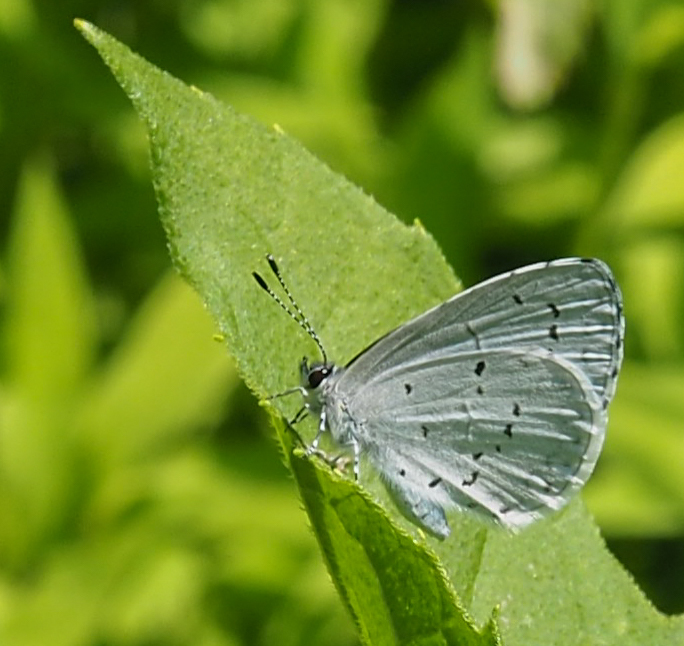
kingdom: Animalia
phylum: Arthropoda
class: Insecta
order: Lepidoptera
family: Lycaenidae
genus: Cyaniris
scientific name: Cyaniris neglecta
